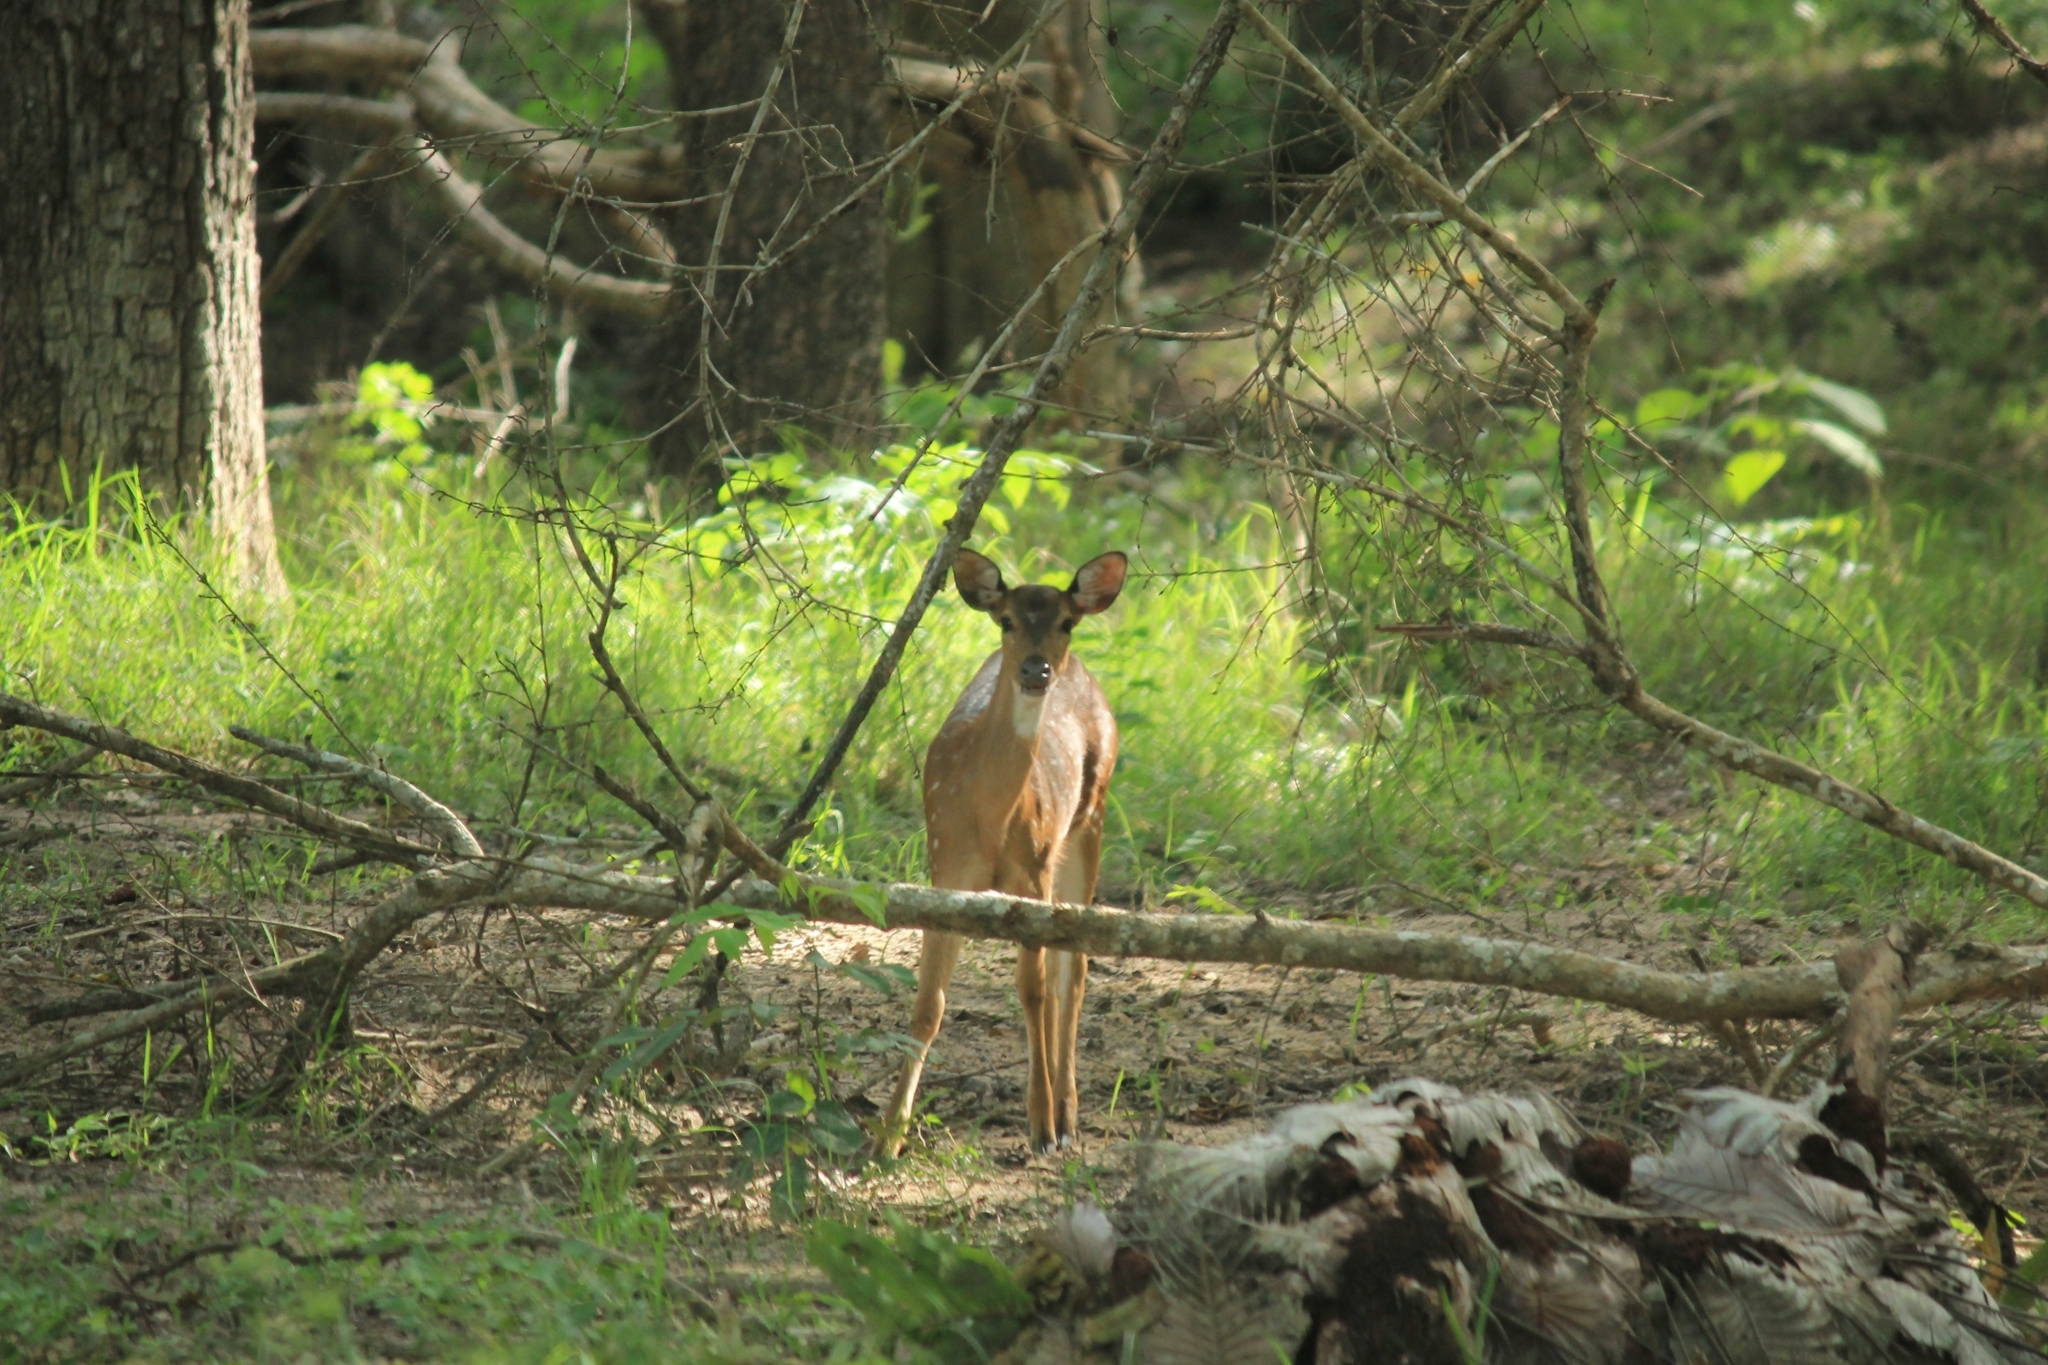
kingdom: Animalia
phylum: Chordata
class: Mammalia
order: Artiodactyla
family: Cervidae
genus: Axis
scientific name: Axis axis
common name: Chital
